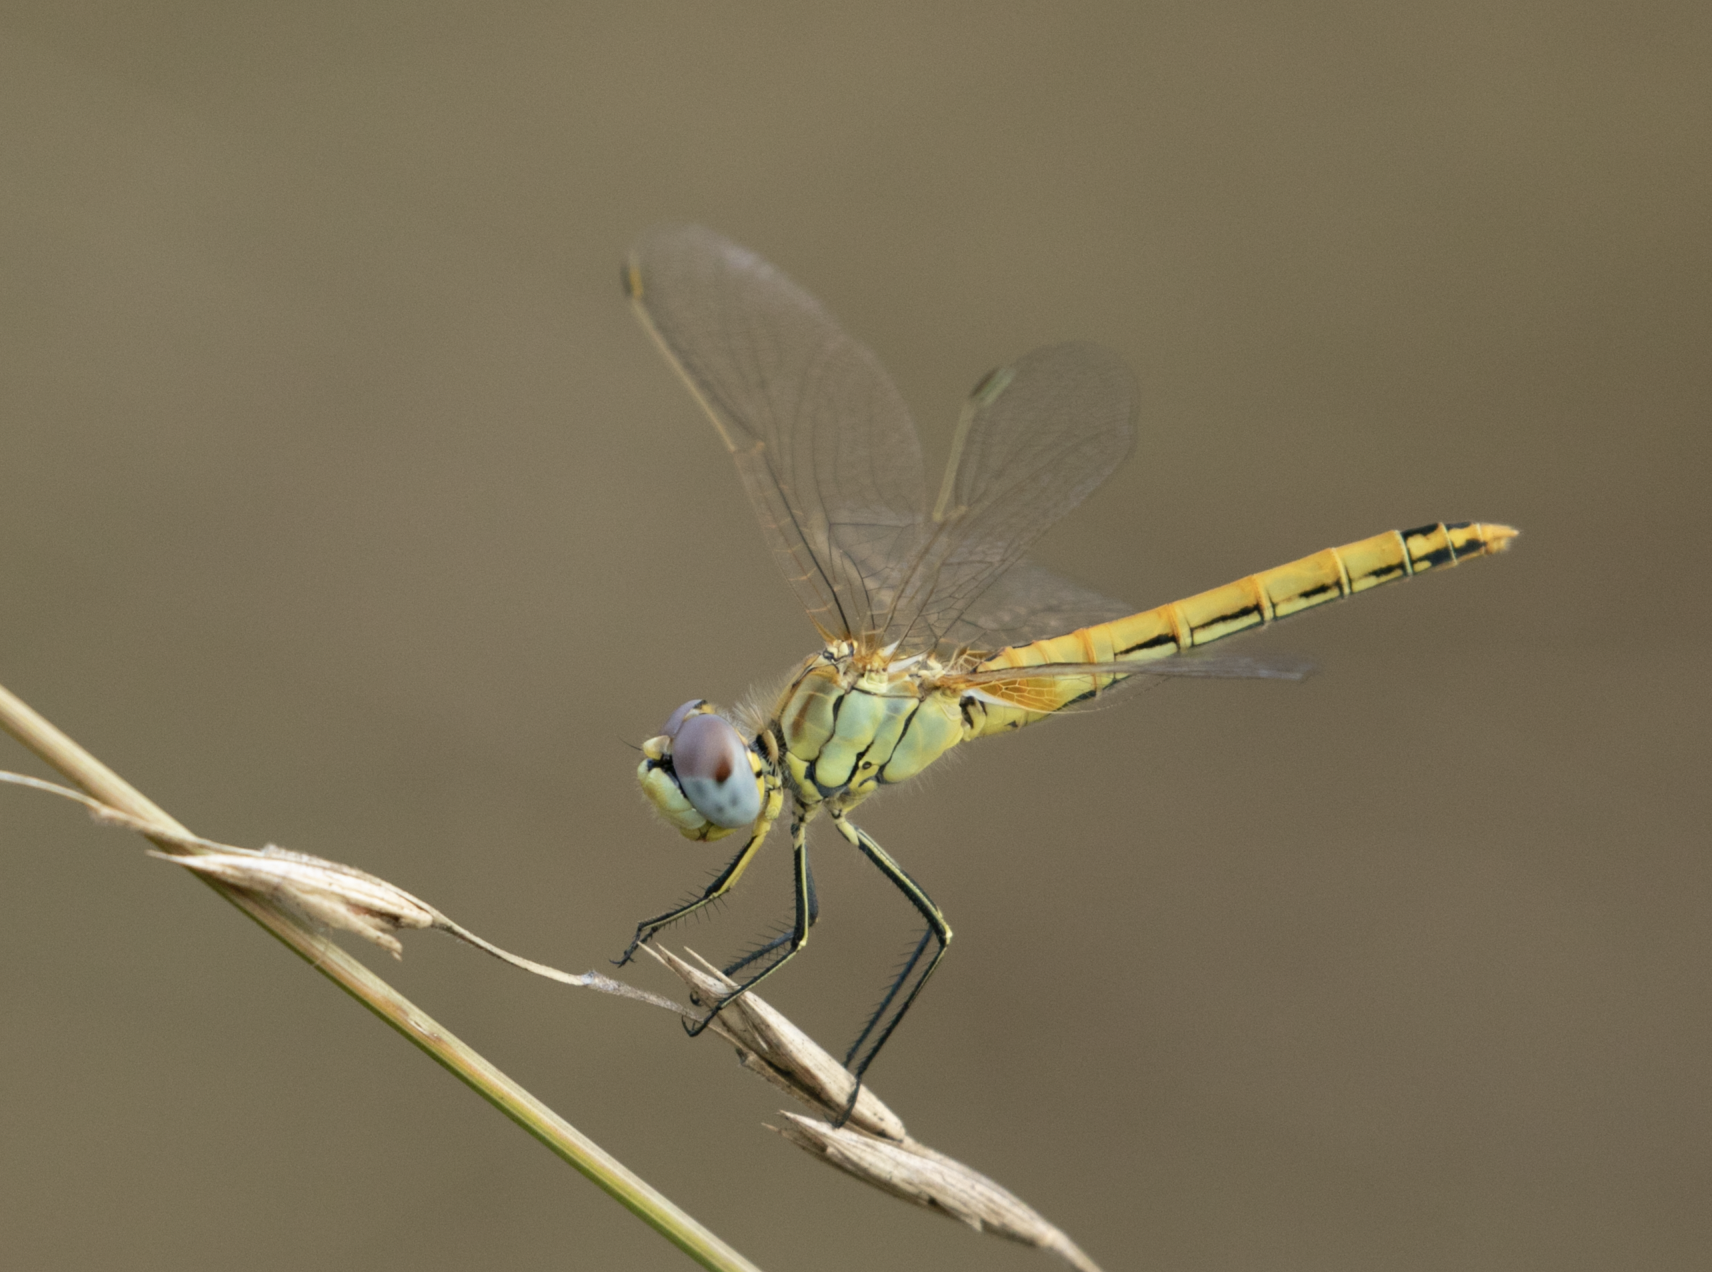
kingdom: Animalia
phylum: Arthropoda
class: Insecta
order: Odonata
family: Libellulidae
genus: Sympetrum
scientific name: Sympetrum fonscolombii
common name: Red-veined darter
